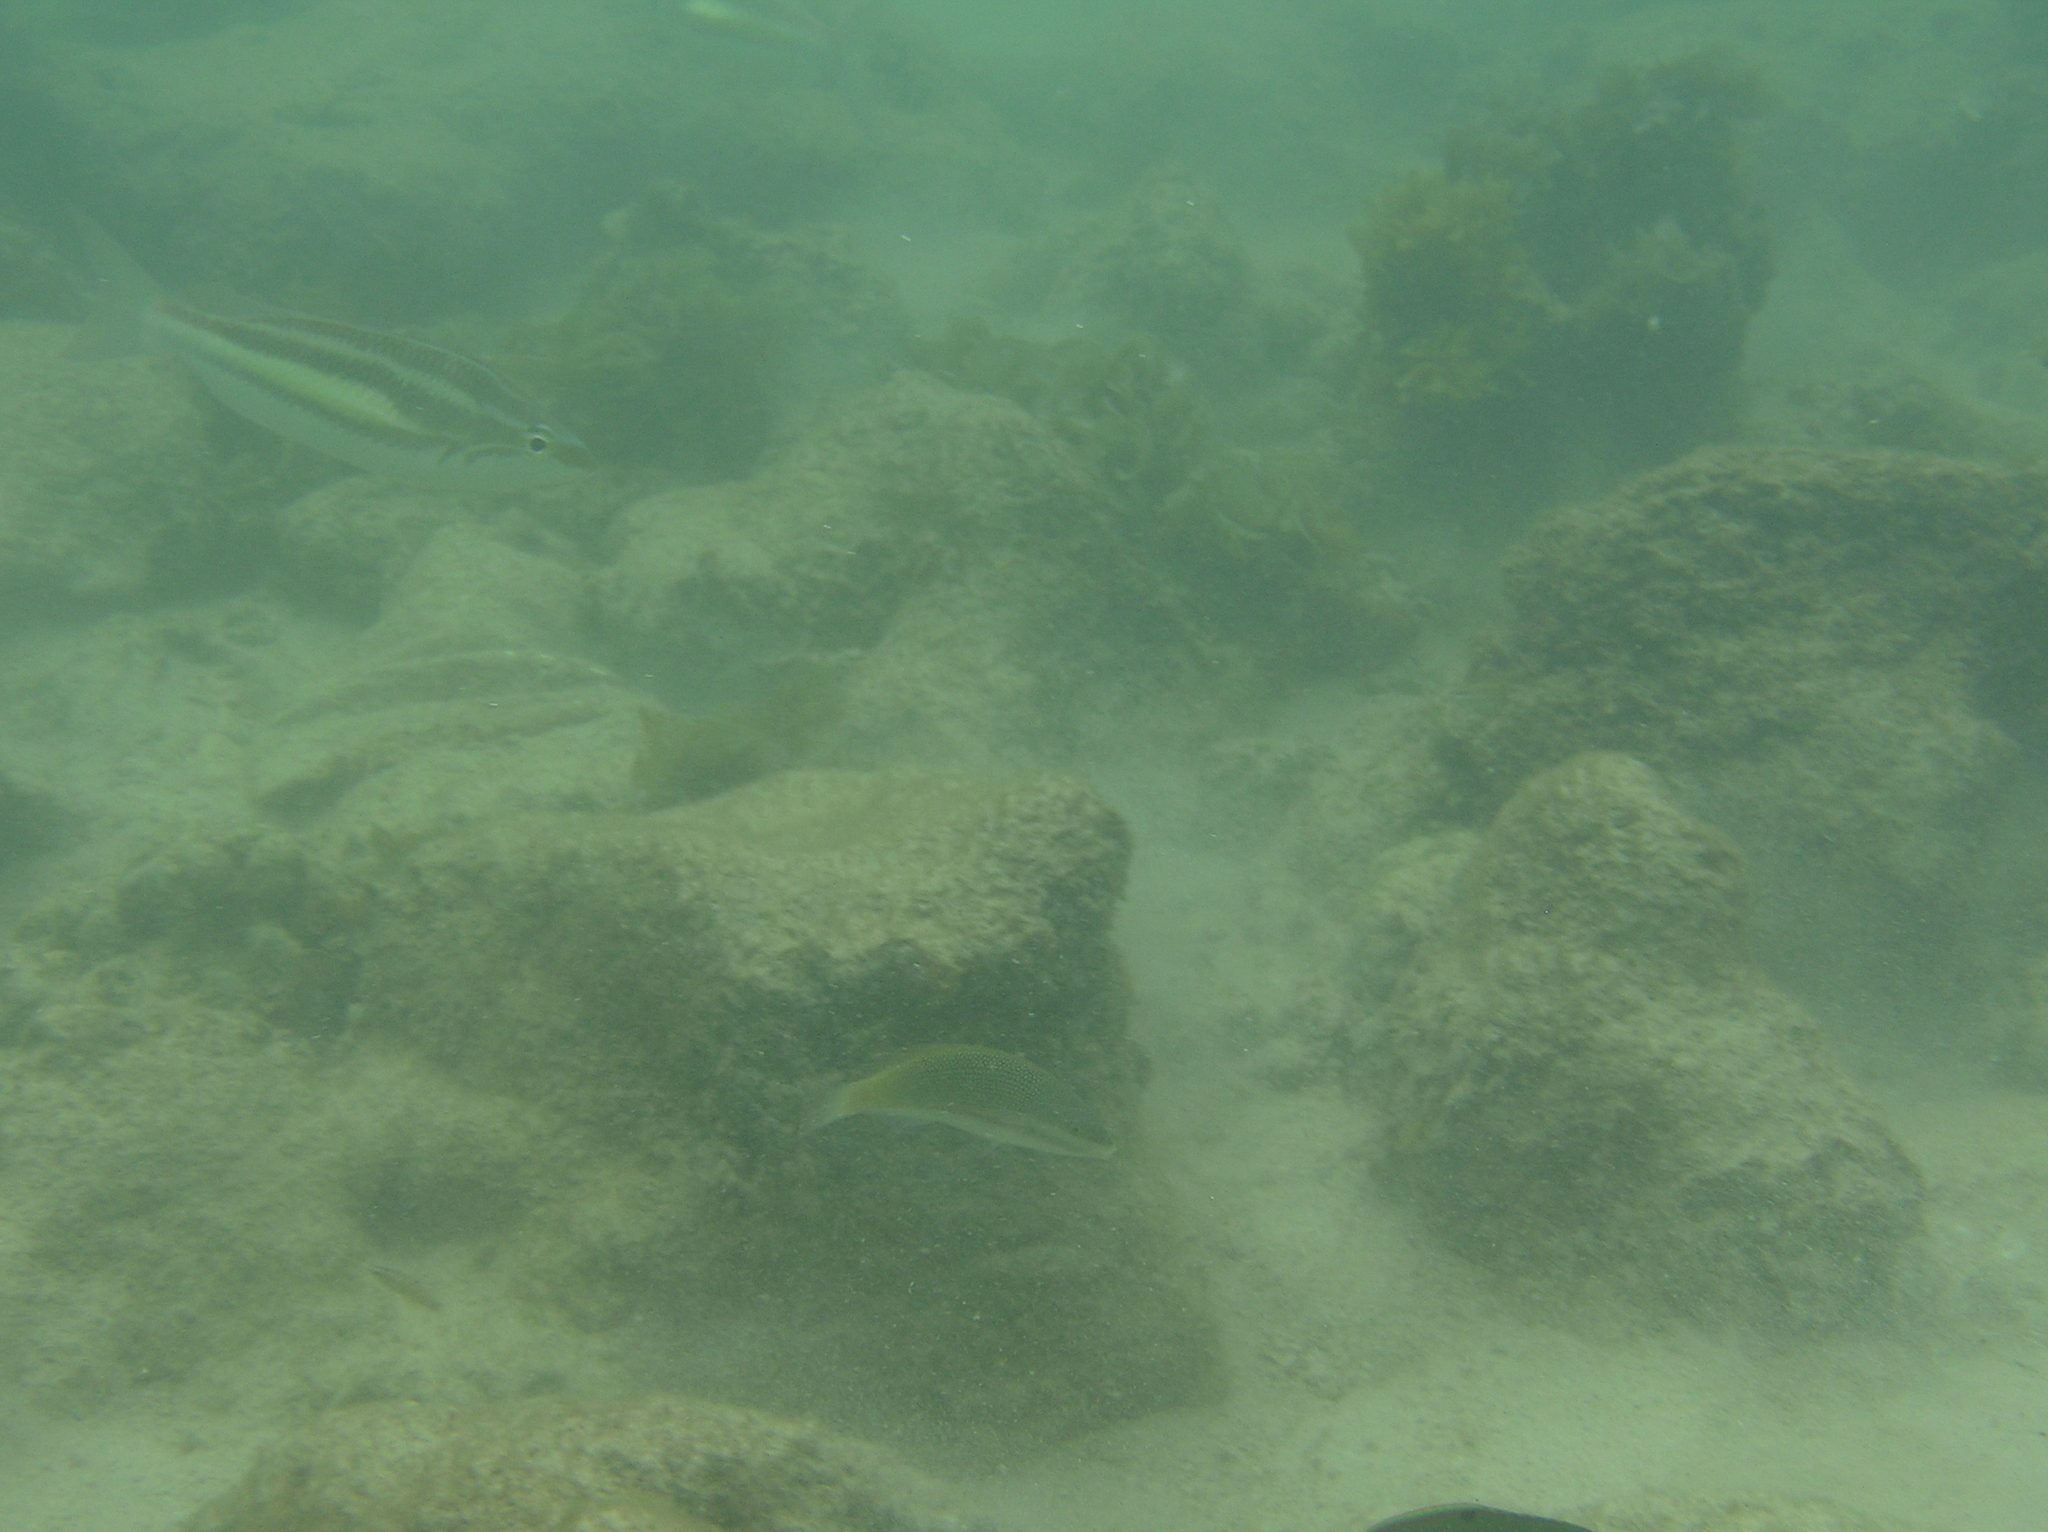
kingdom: Animalia
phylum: Chordata
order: Perciformes
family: Nemipteridae
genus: Pentapodus
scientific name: Pentapodus trivittatus
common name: Three-striped whiptail
